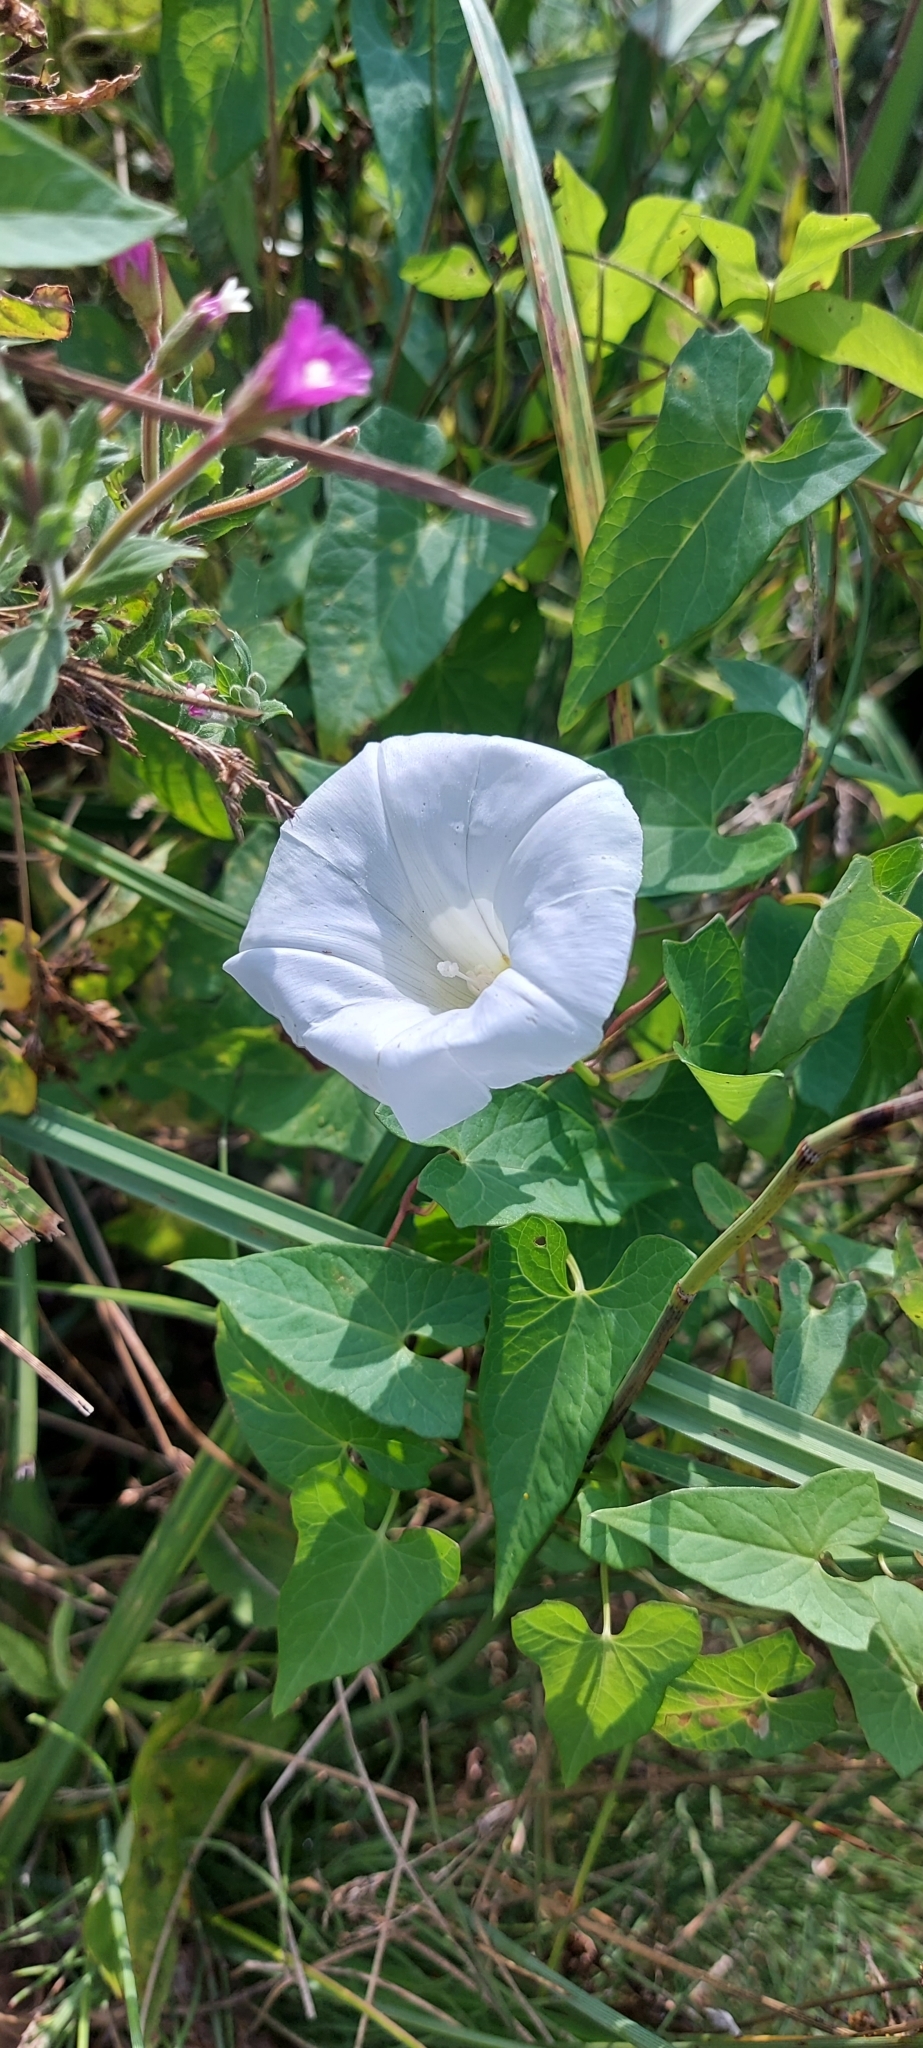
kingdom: Plantae
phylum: Tracheophyta
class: Magnoliopsida
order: Solanales
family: Convolvulaceae
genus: Calystegia
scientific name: Calystegia sepium
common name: Hedge bindweed
